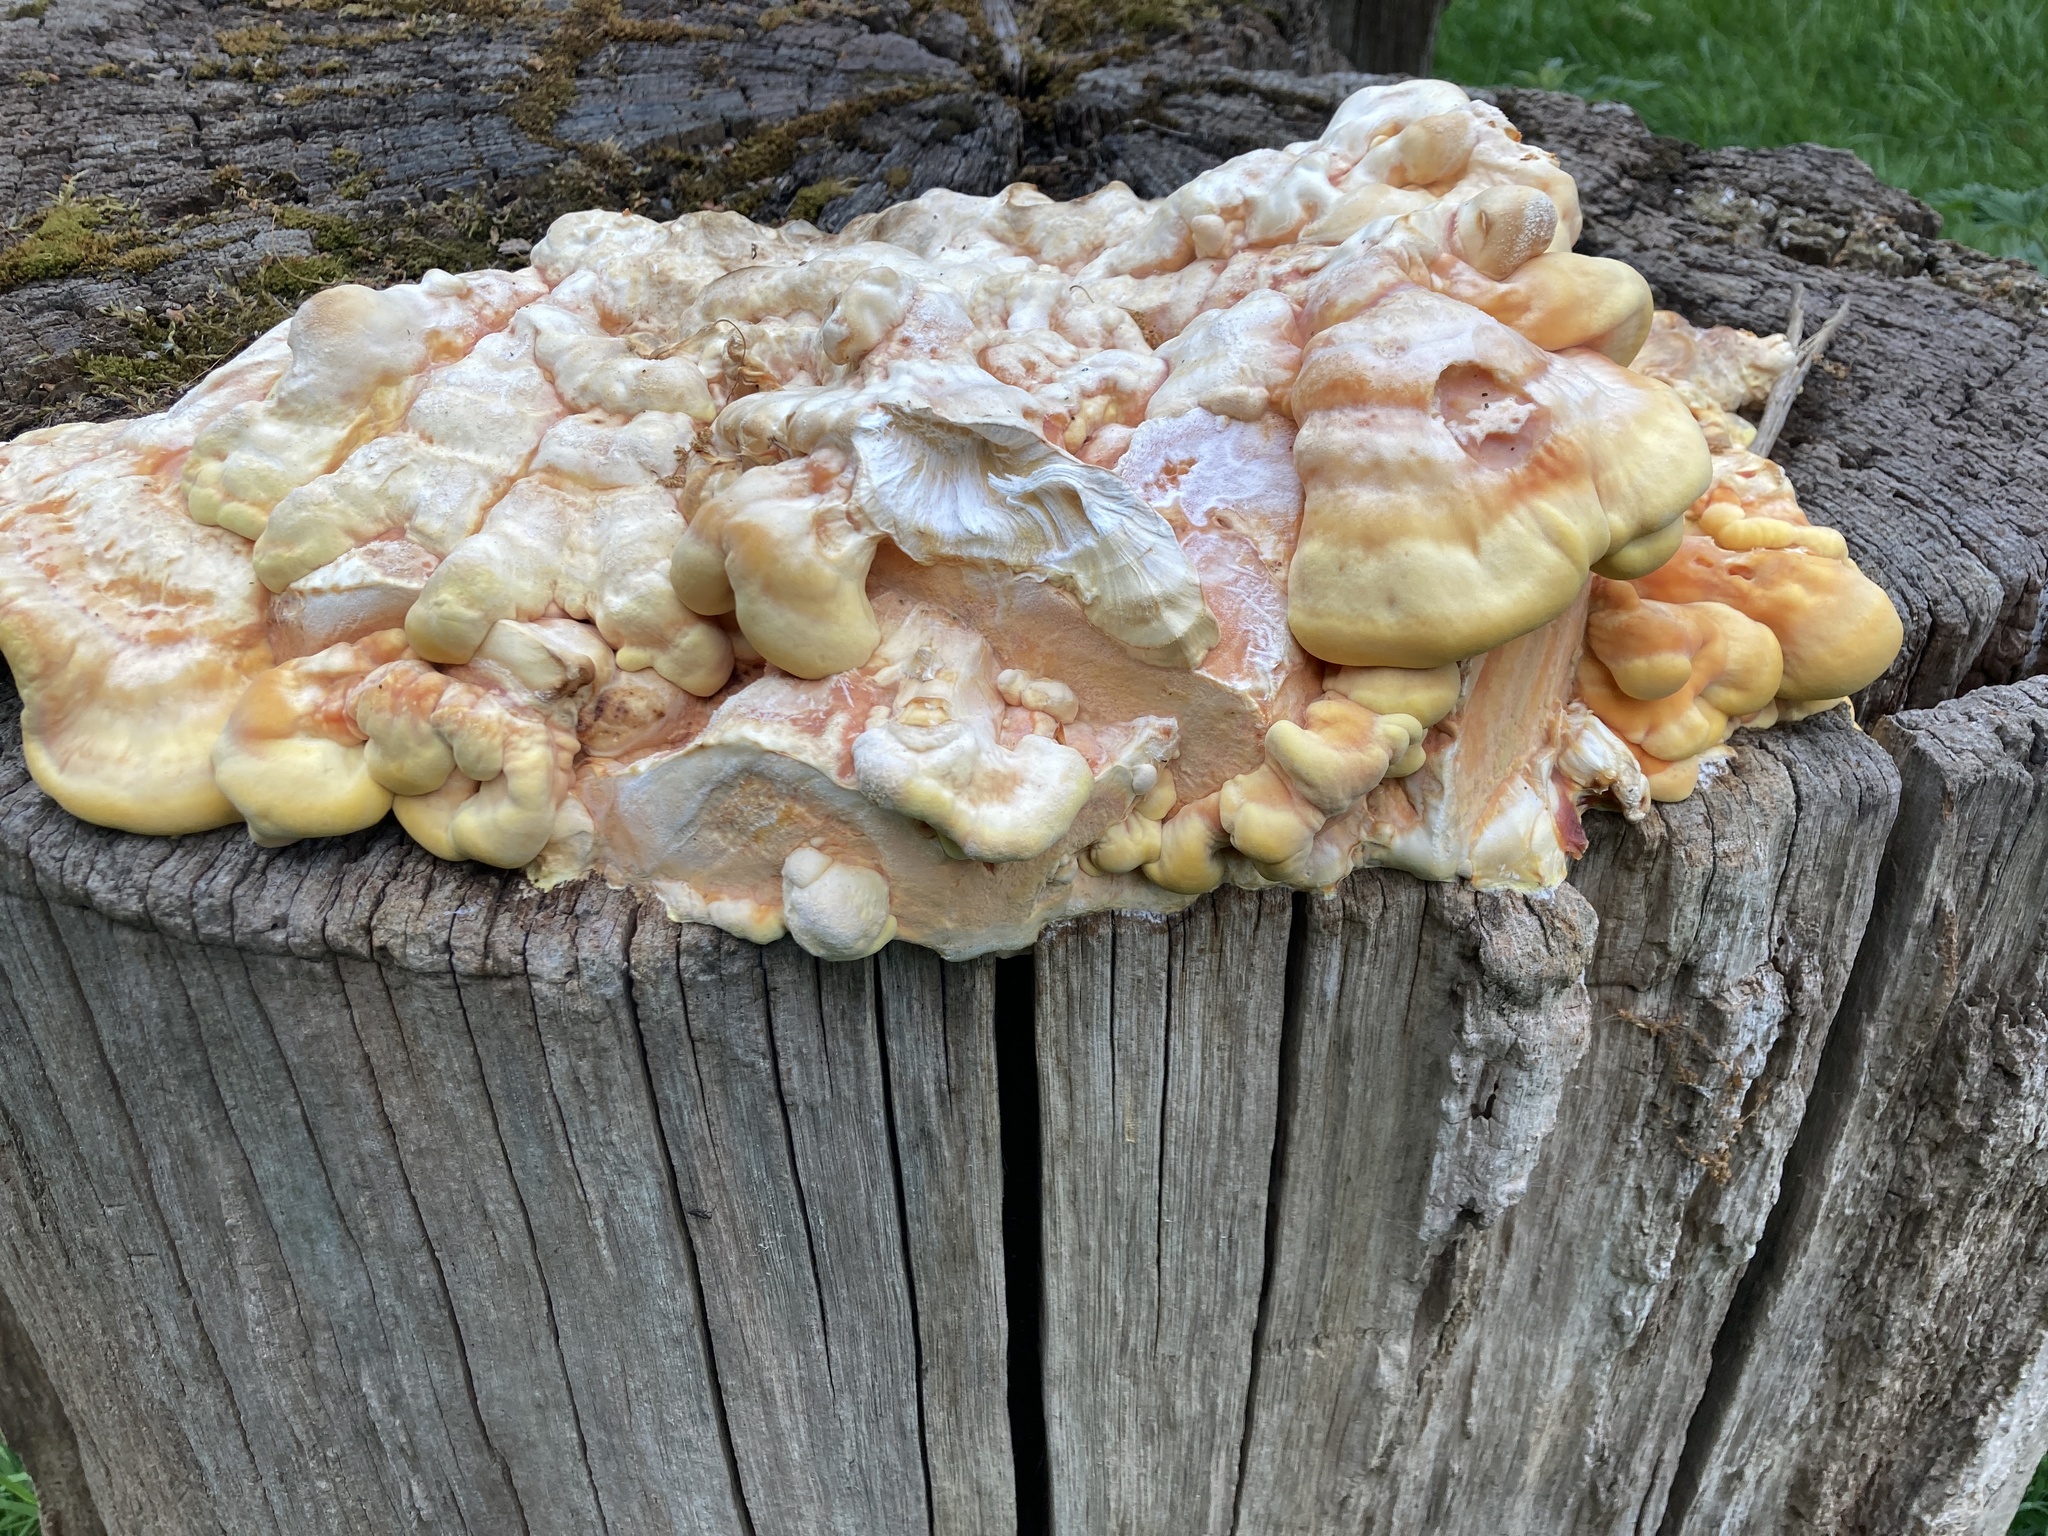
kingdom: Fungi
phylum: Basidiomycota
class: Agaricomycetes
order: Polyporales
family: Laetiporaceae
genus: Laetiporus
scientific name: Laetiporus sulphureus
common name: Chicken of the woods
